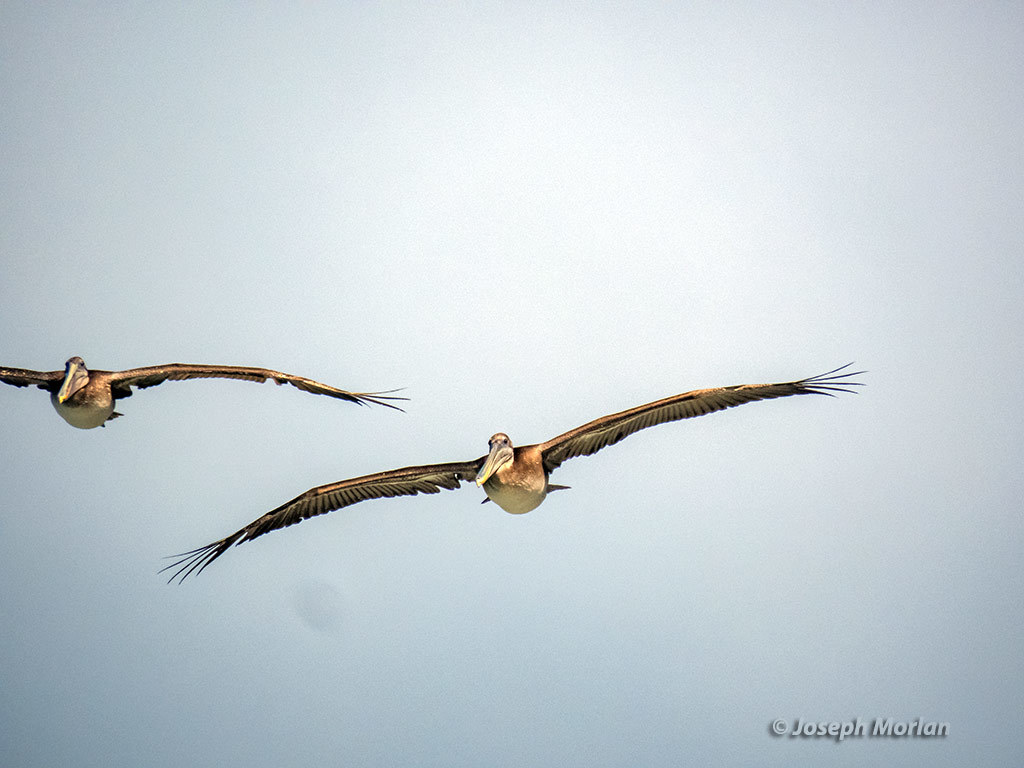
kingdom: Animalia
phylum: Chordata
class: Aves
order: Pelecaniformes
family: Pelecanidae
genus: Pelecanus
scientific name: Pelecanus occidentalis
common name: Brown pelican
